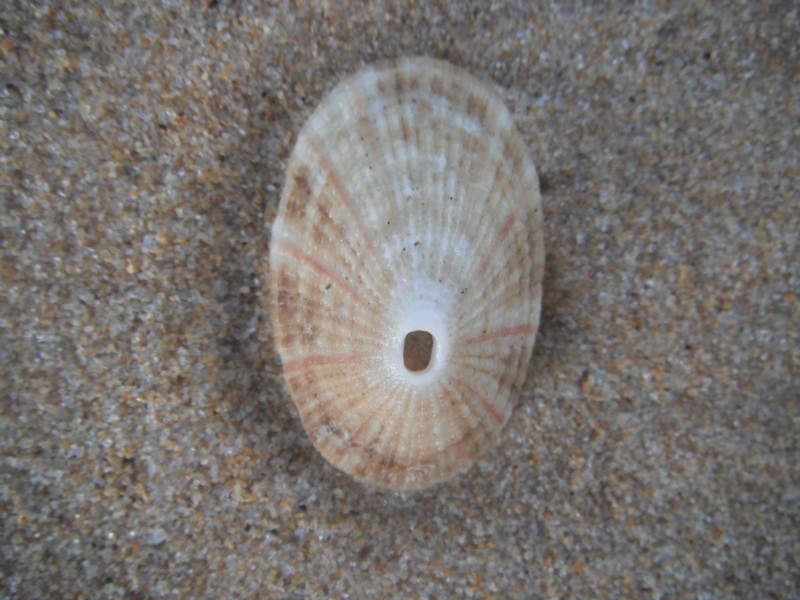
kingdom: Animalia
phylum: Mollusca
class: Gastropoda
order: Lepetellida
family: Fissurellidae
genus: Diodora
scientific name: Diodora lineata
